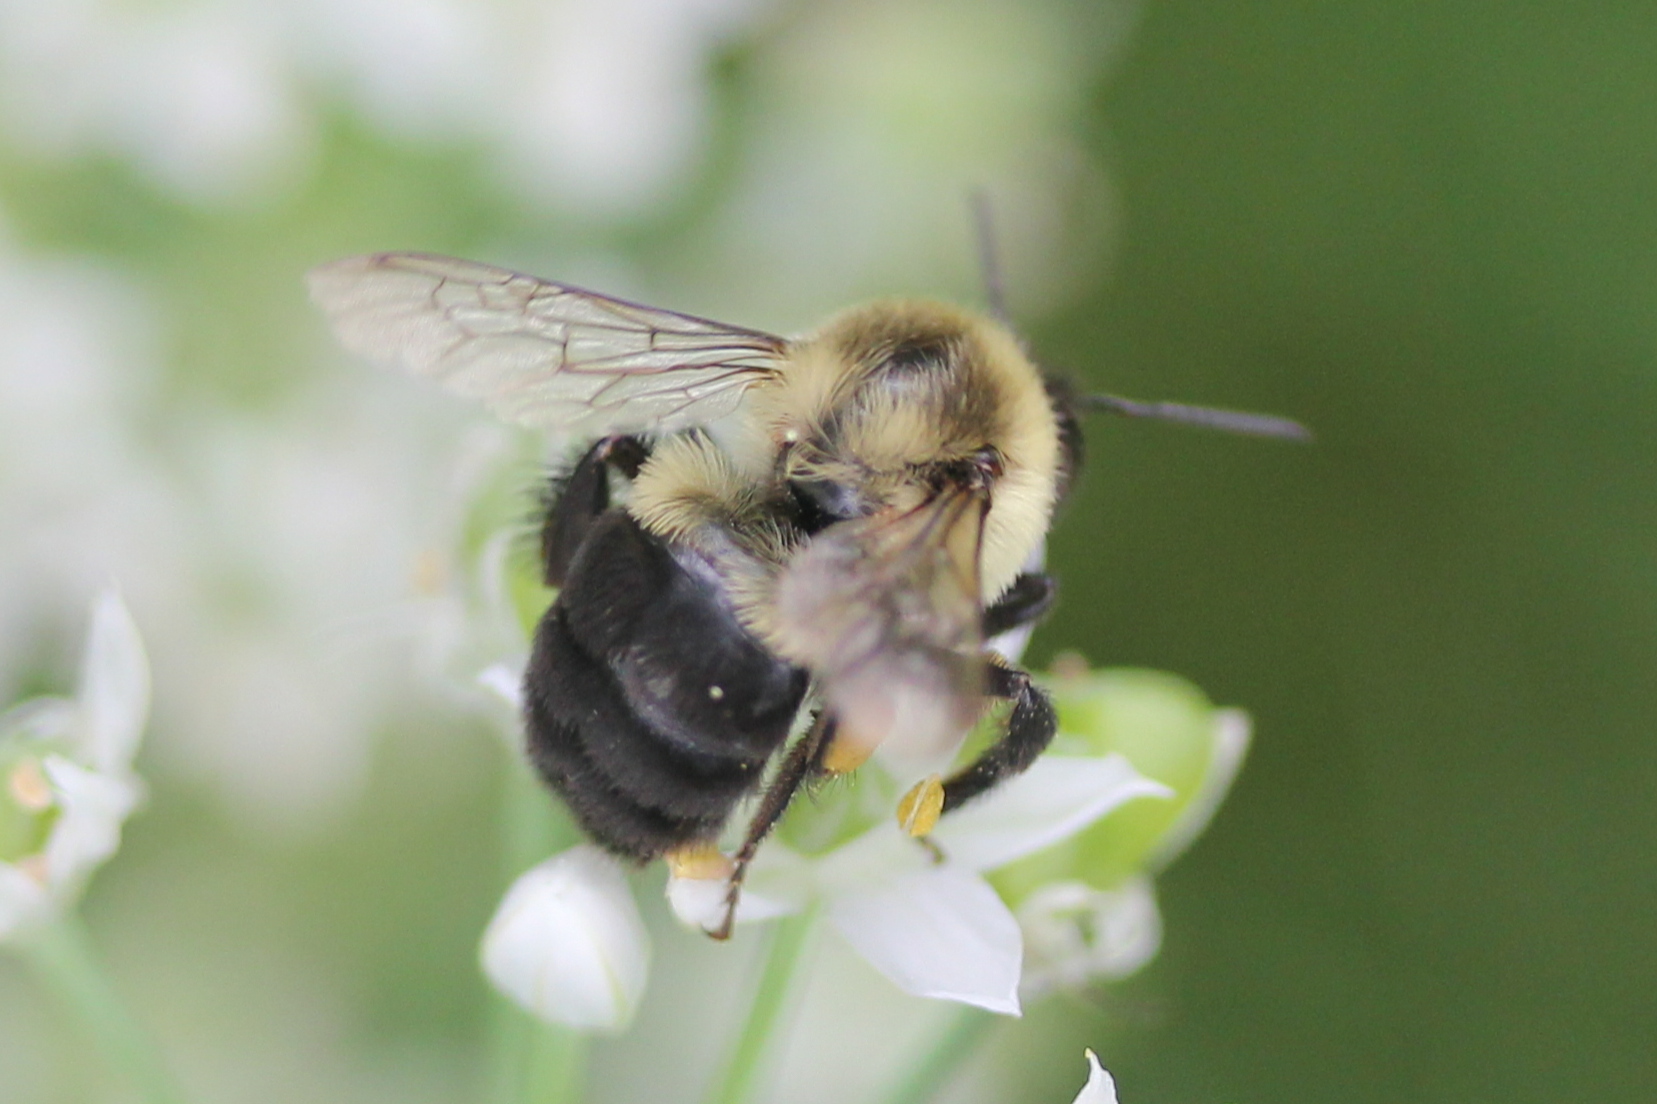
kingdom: Animalia
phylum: Arthropoda
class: Insecta
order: Hymenoptera
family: Apidae
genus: Bombus
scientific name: Bombus impatiens
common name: Common eastern bumble bee
